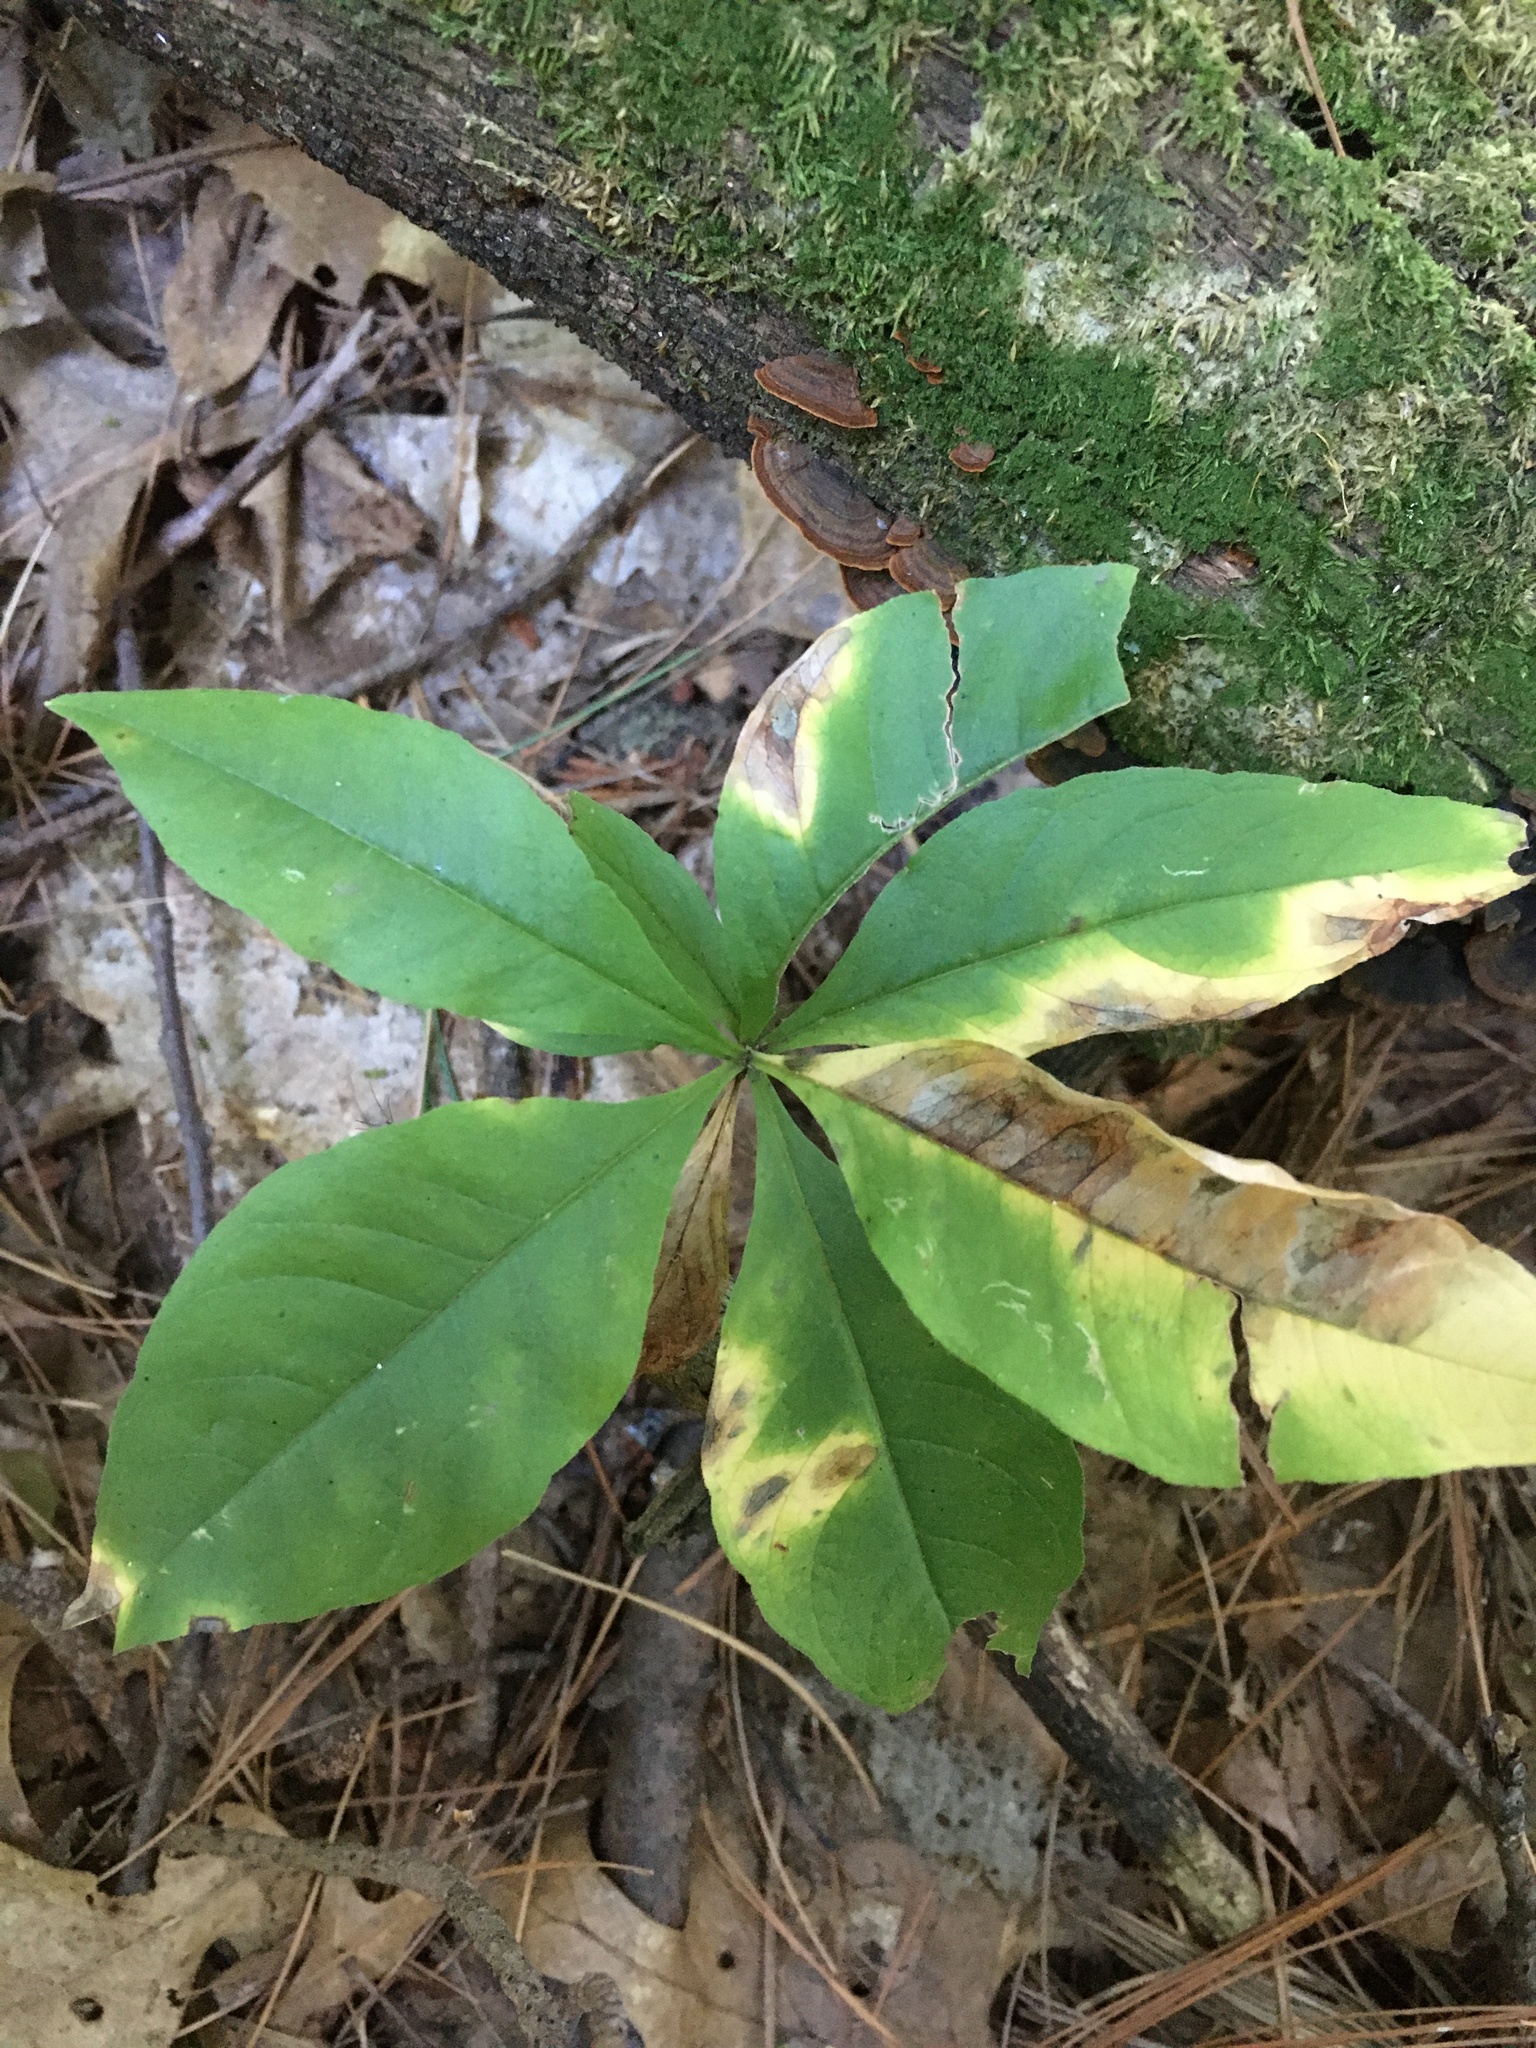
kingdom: Plantae
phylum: Tracheophyta
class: Magnoliopsida
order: Ericales
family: Primulaceae
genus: Lysimachia
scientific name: Lysimachia borealis
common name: American starflower
